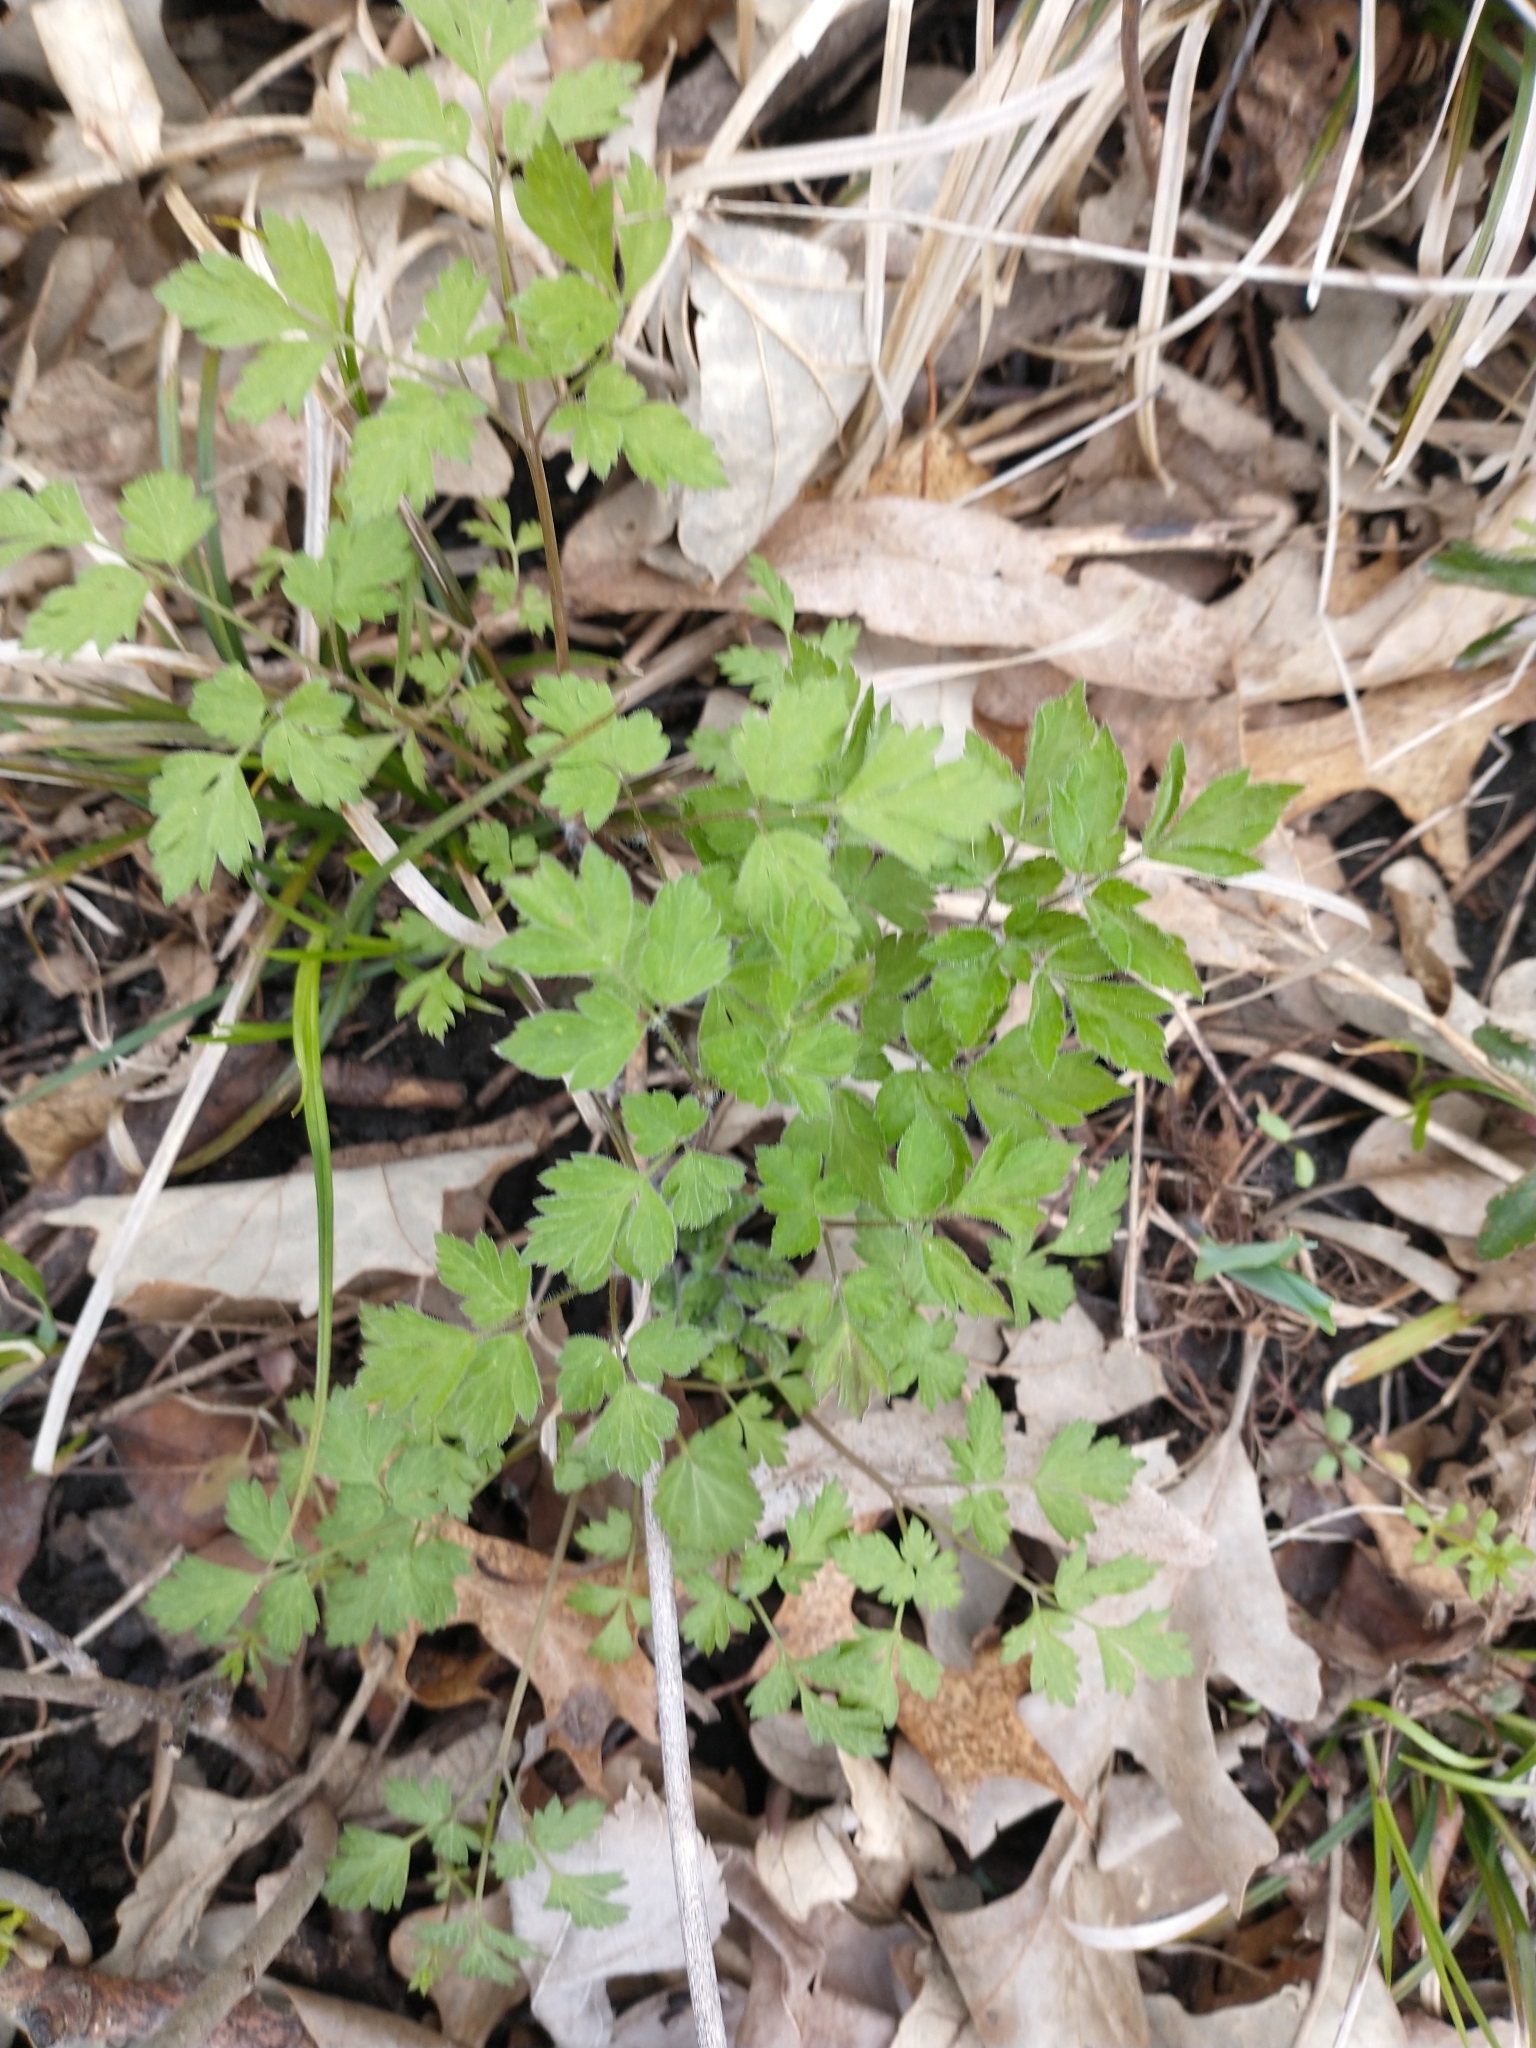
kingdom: Plantae
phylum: Tracheophyta
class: Magnoliopsida
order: Apiales
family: Apiaceae
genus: Osmorhiza
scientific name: Osmorhiza claytonii
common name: Hairy sweet cicely
